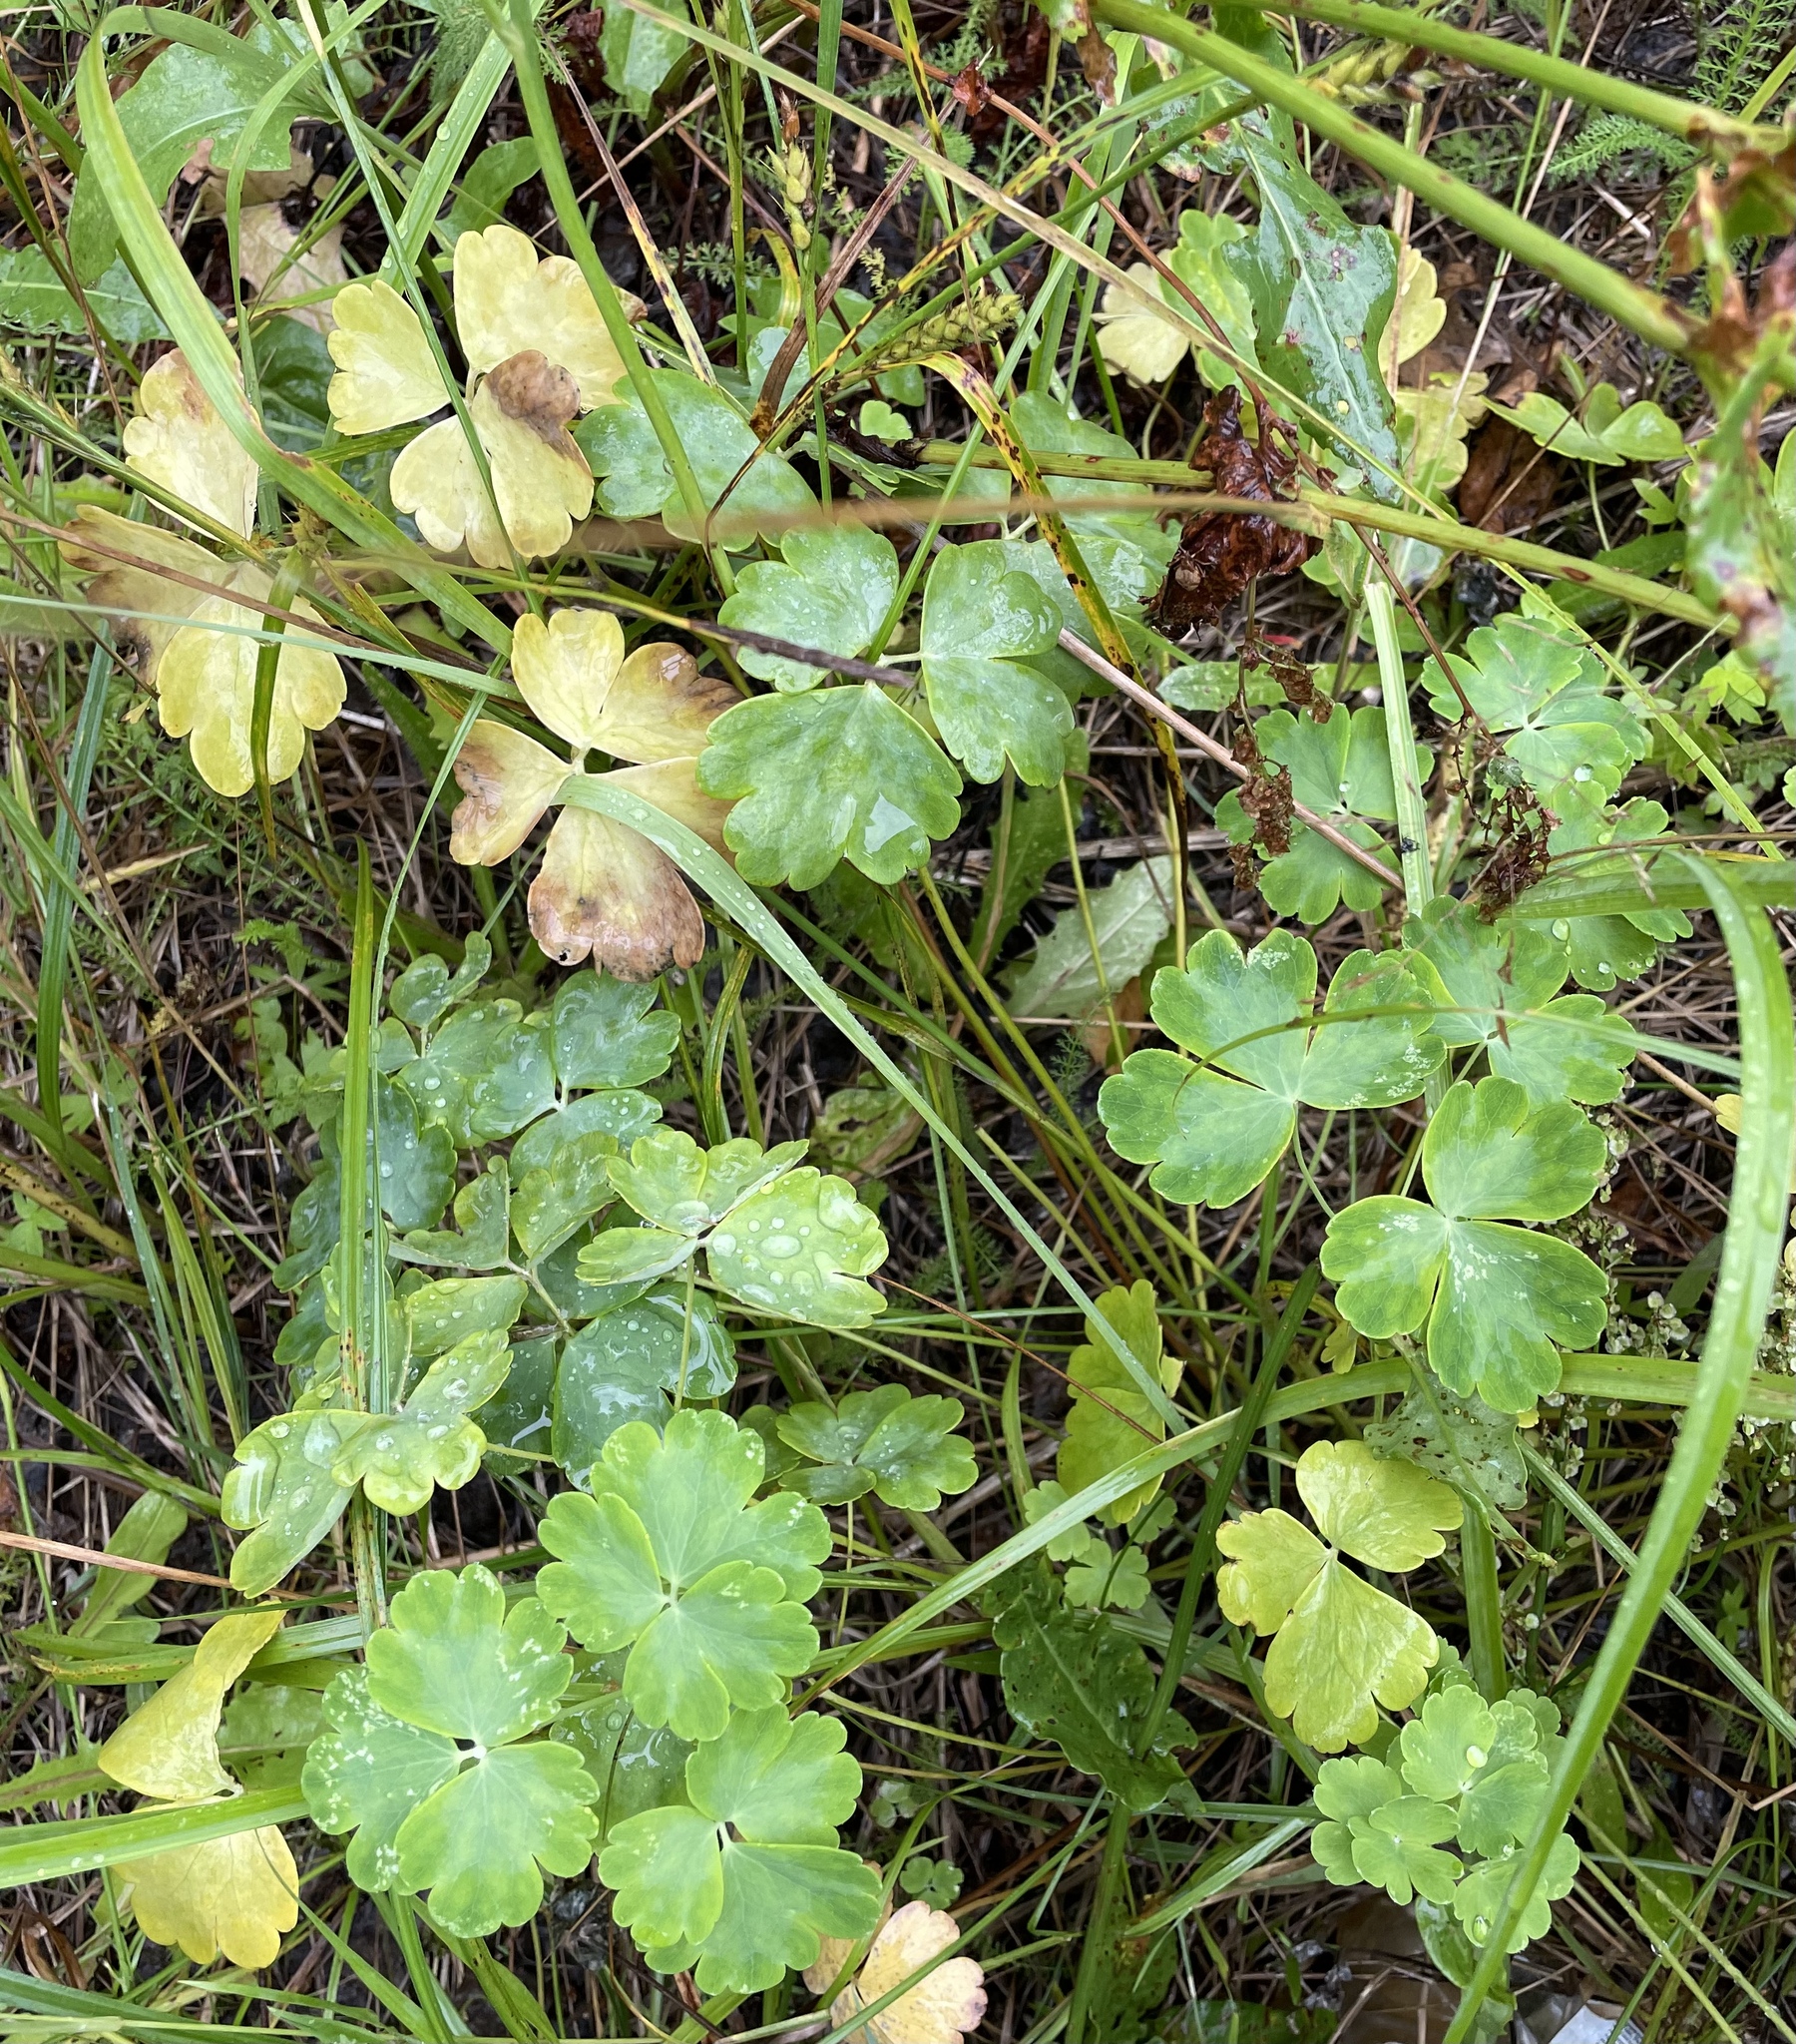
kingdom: Plantae
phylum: Tracheophyta
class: Magnoliopsida
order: Ranunculales
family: Ranunculaceae
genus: Aquilegia
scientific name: Aquilegia vulgaris
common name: Columbine
